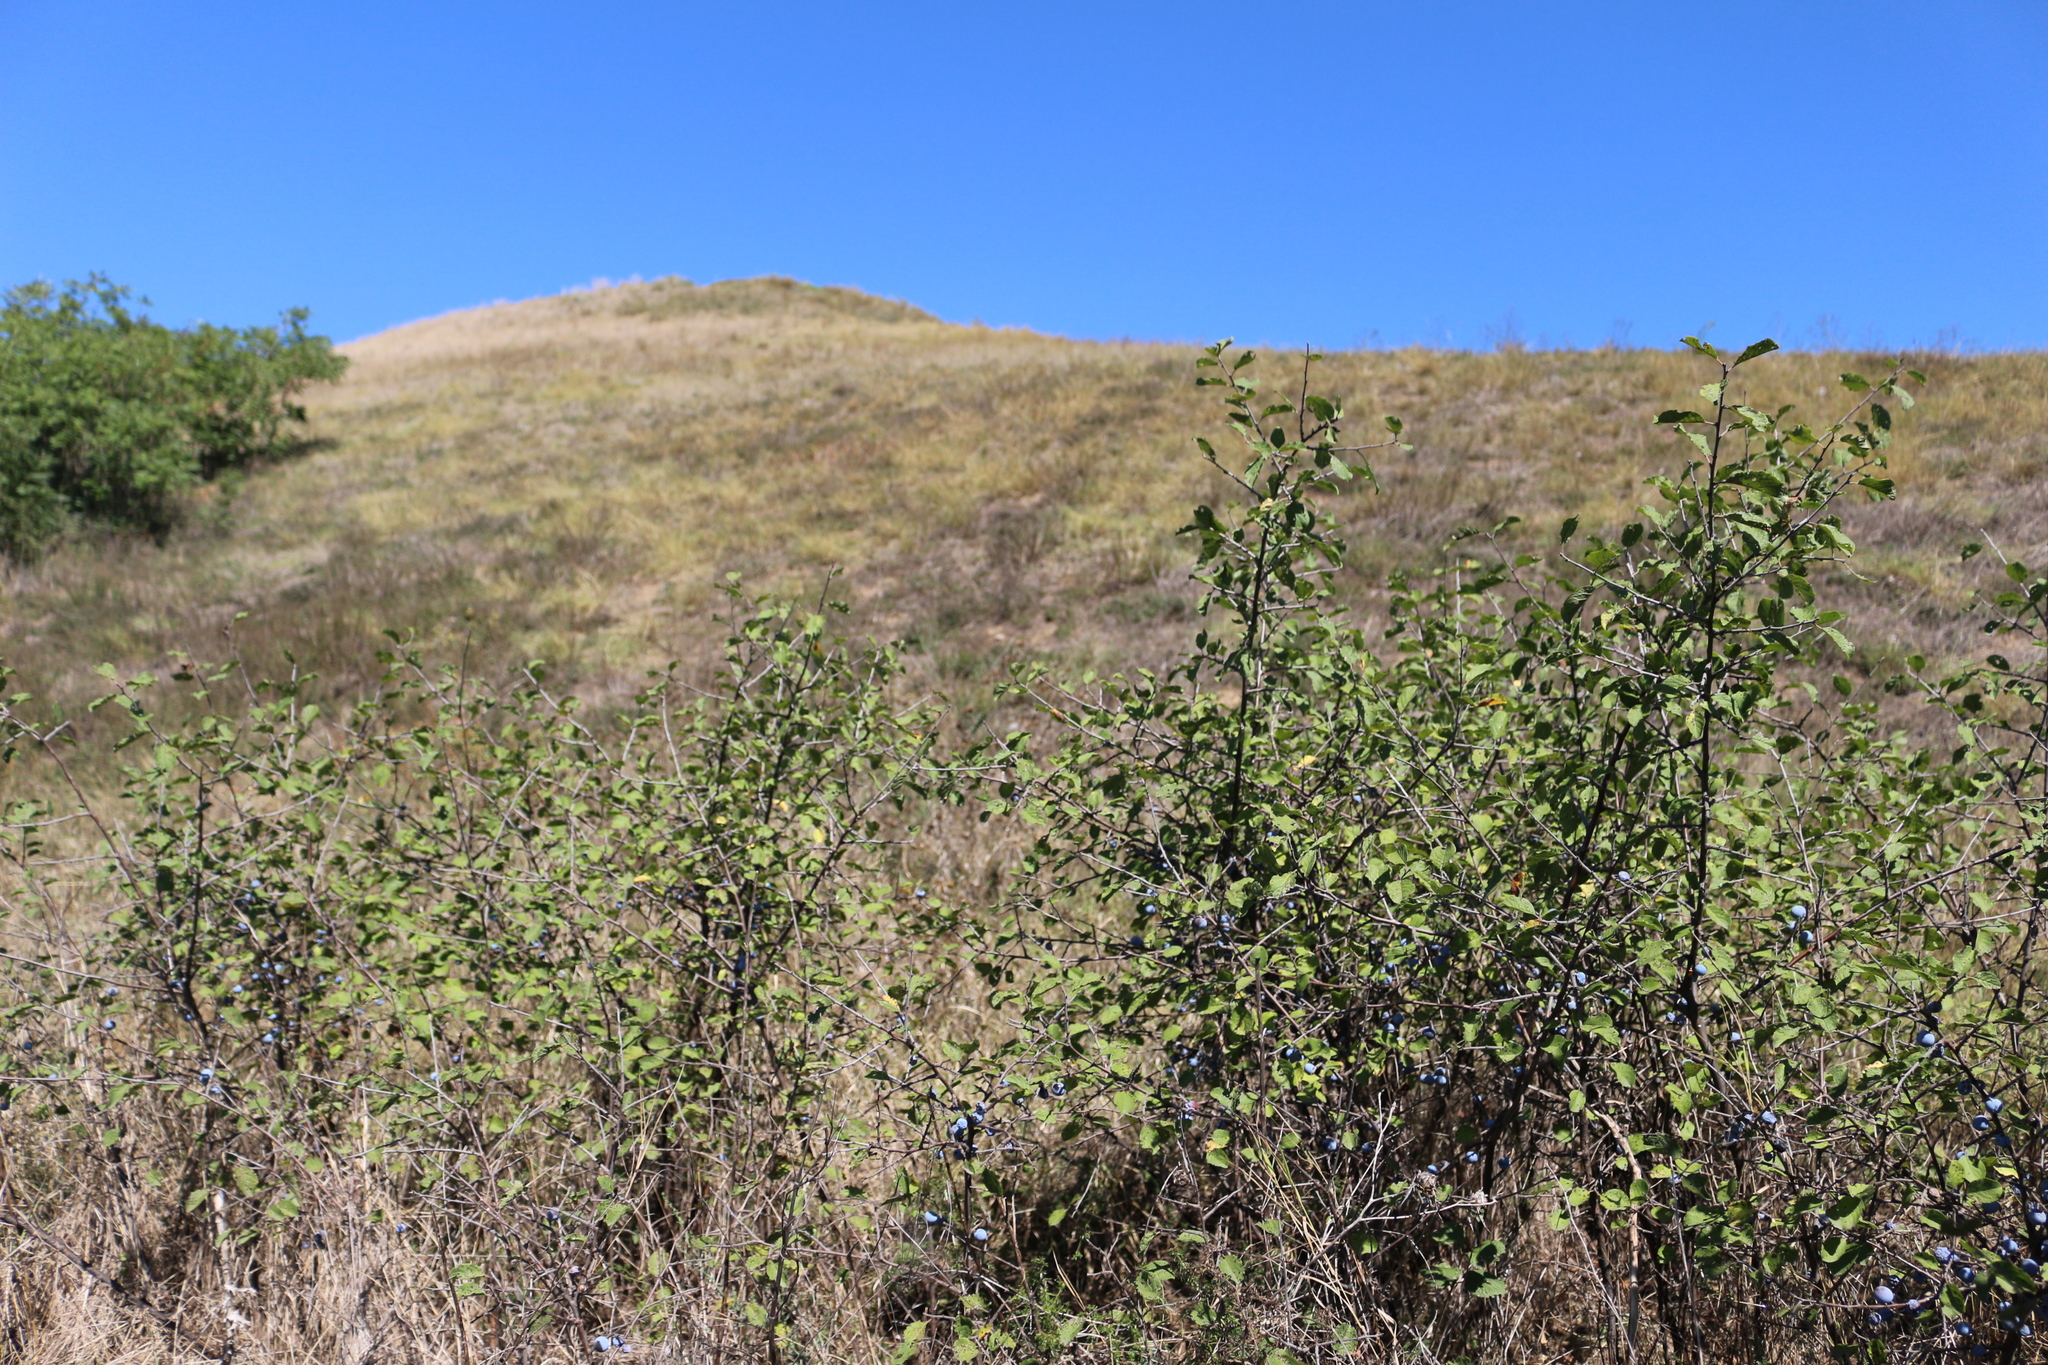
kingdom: Plantae
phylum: Tracheophyta
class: Magnoliopsida
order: Rosales
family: Rosaceae
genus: Prunus
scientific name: Prunus spinosa
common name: Blackthorn
